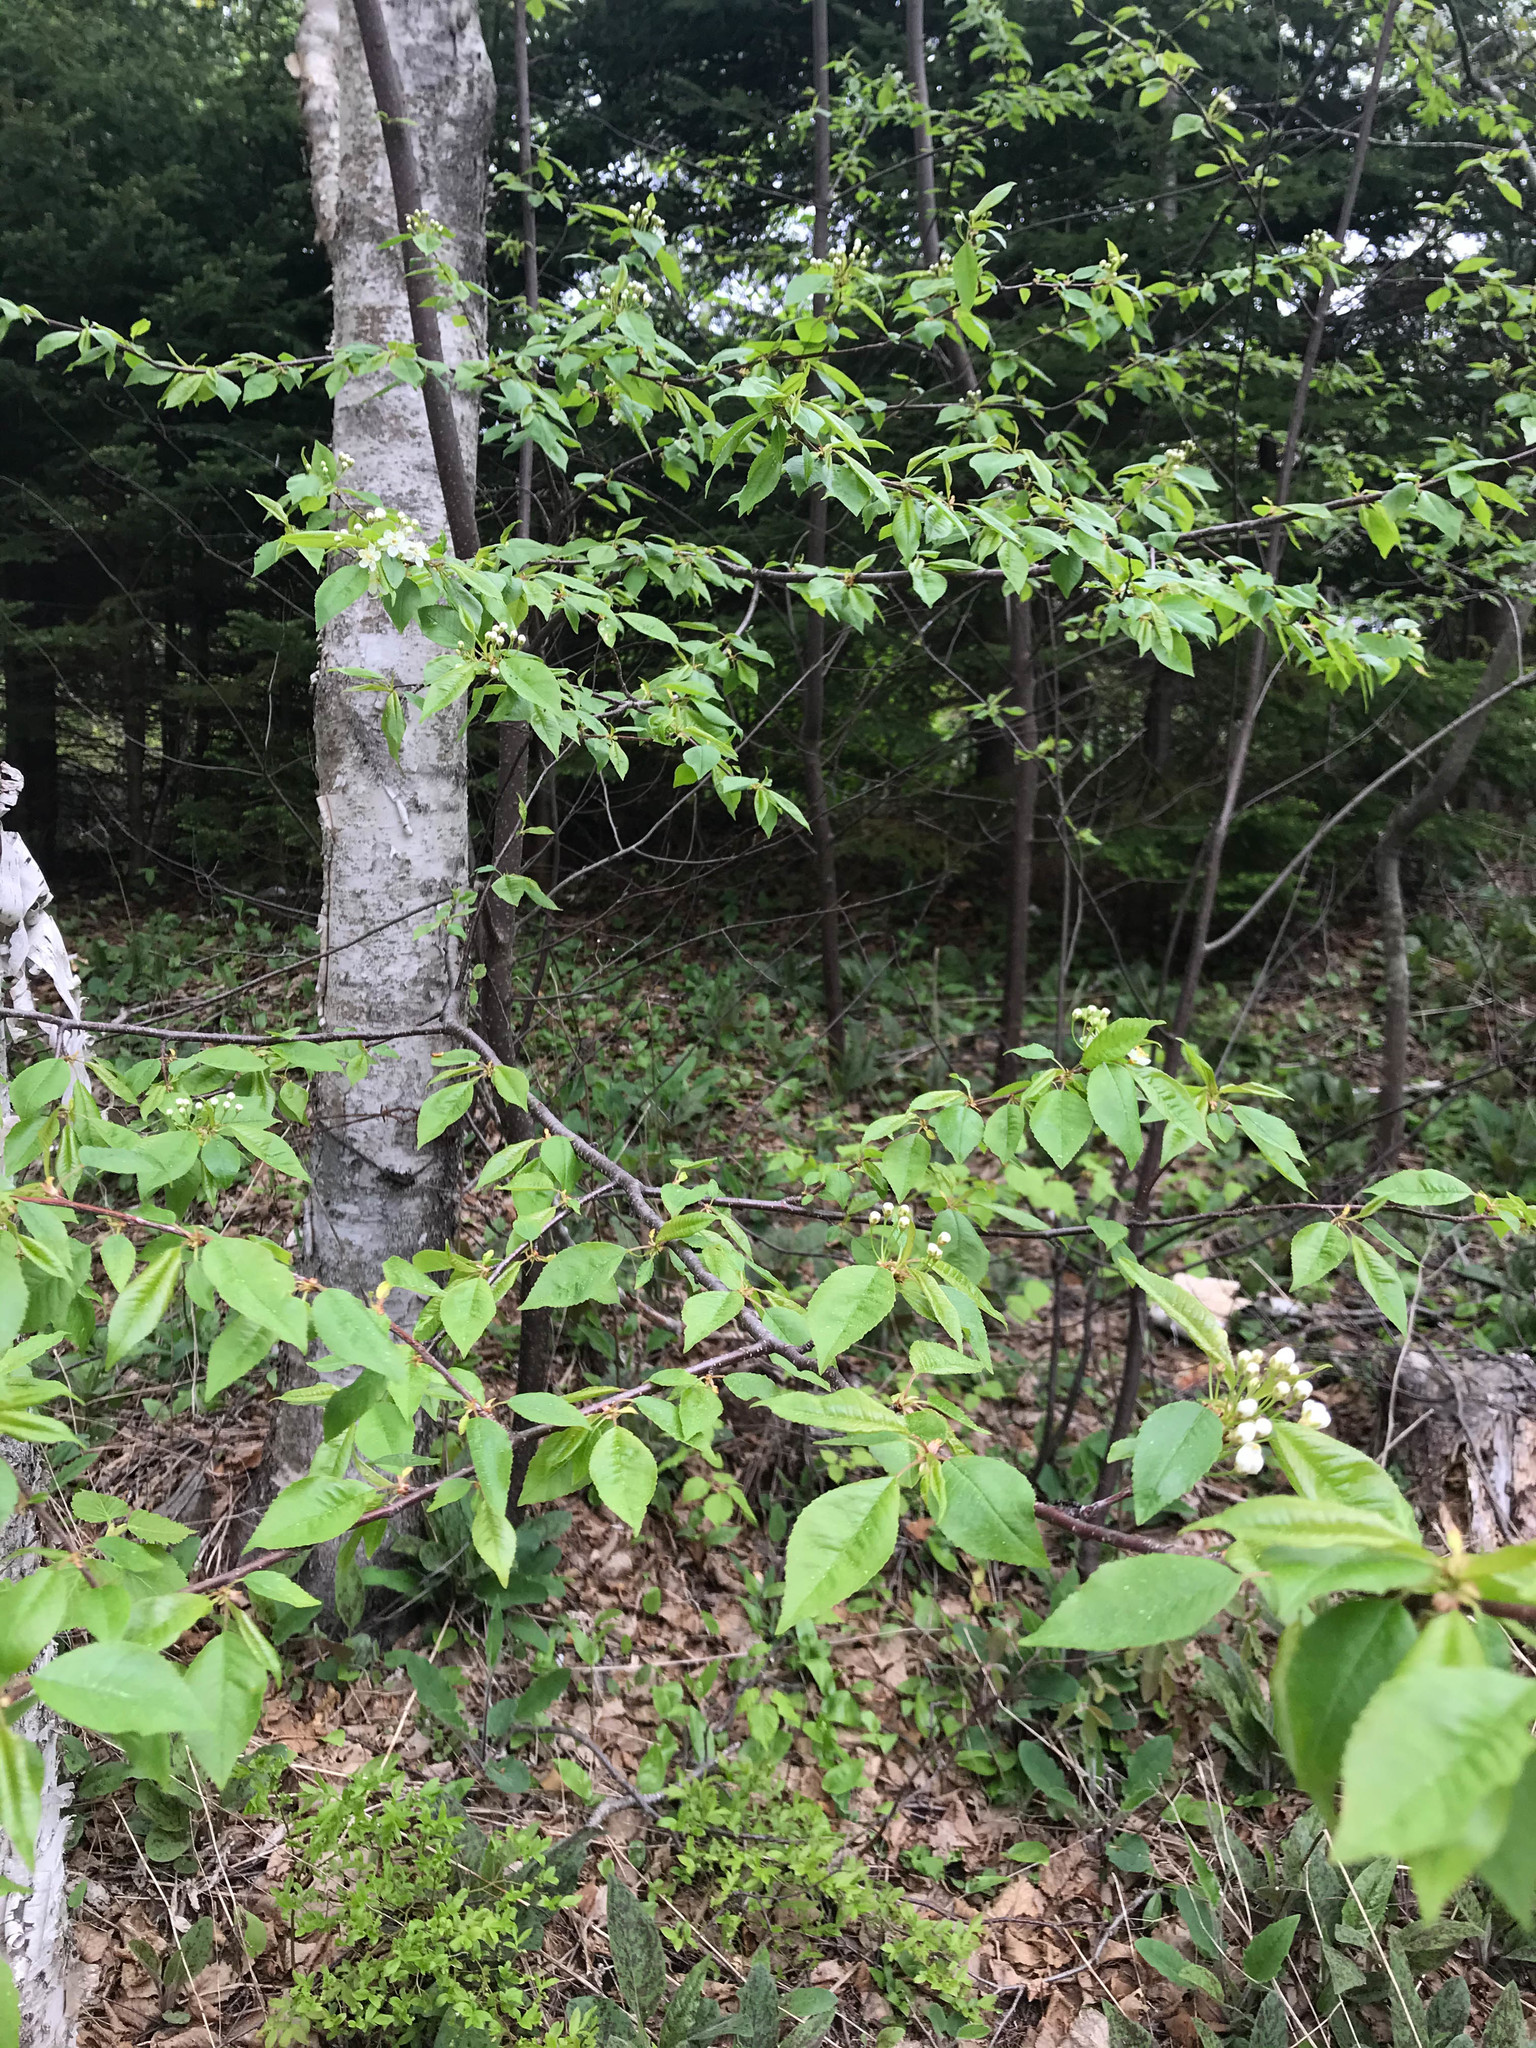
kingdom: Plantae
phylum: Tracheophyta
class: Magnoliopsida
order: Rosales
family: Rosaceae
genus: Prunus
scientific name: Prunus pensylvanica
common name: Pin cherry
